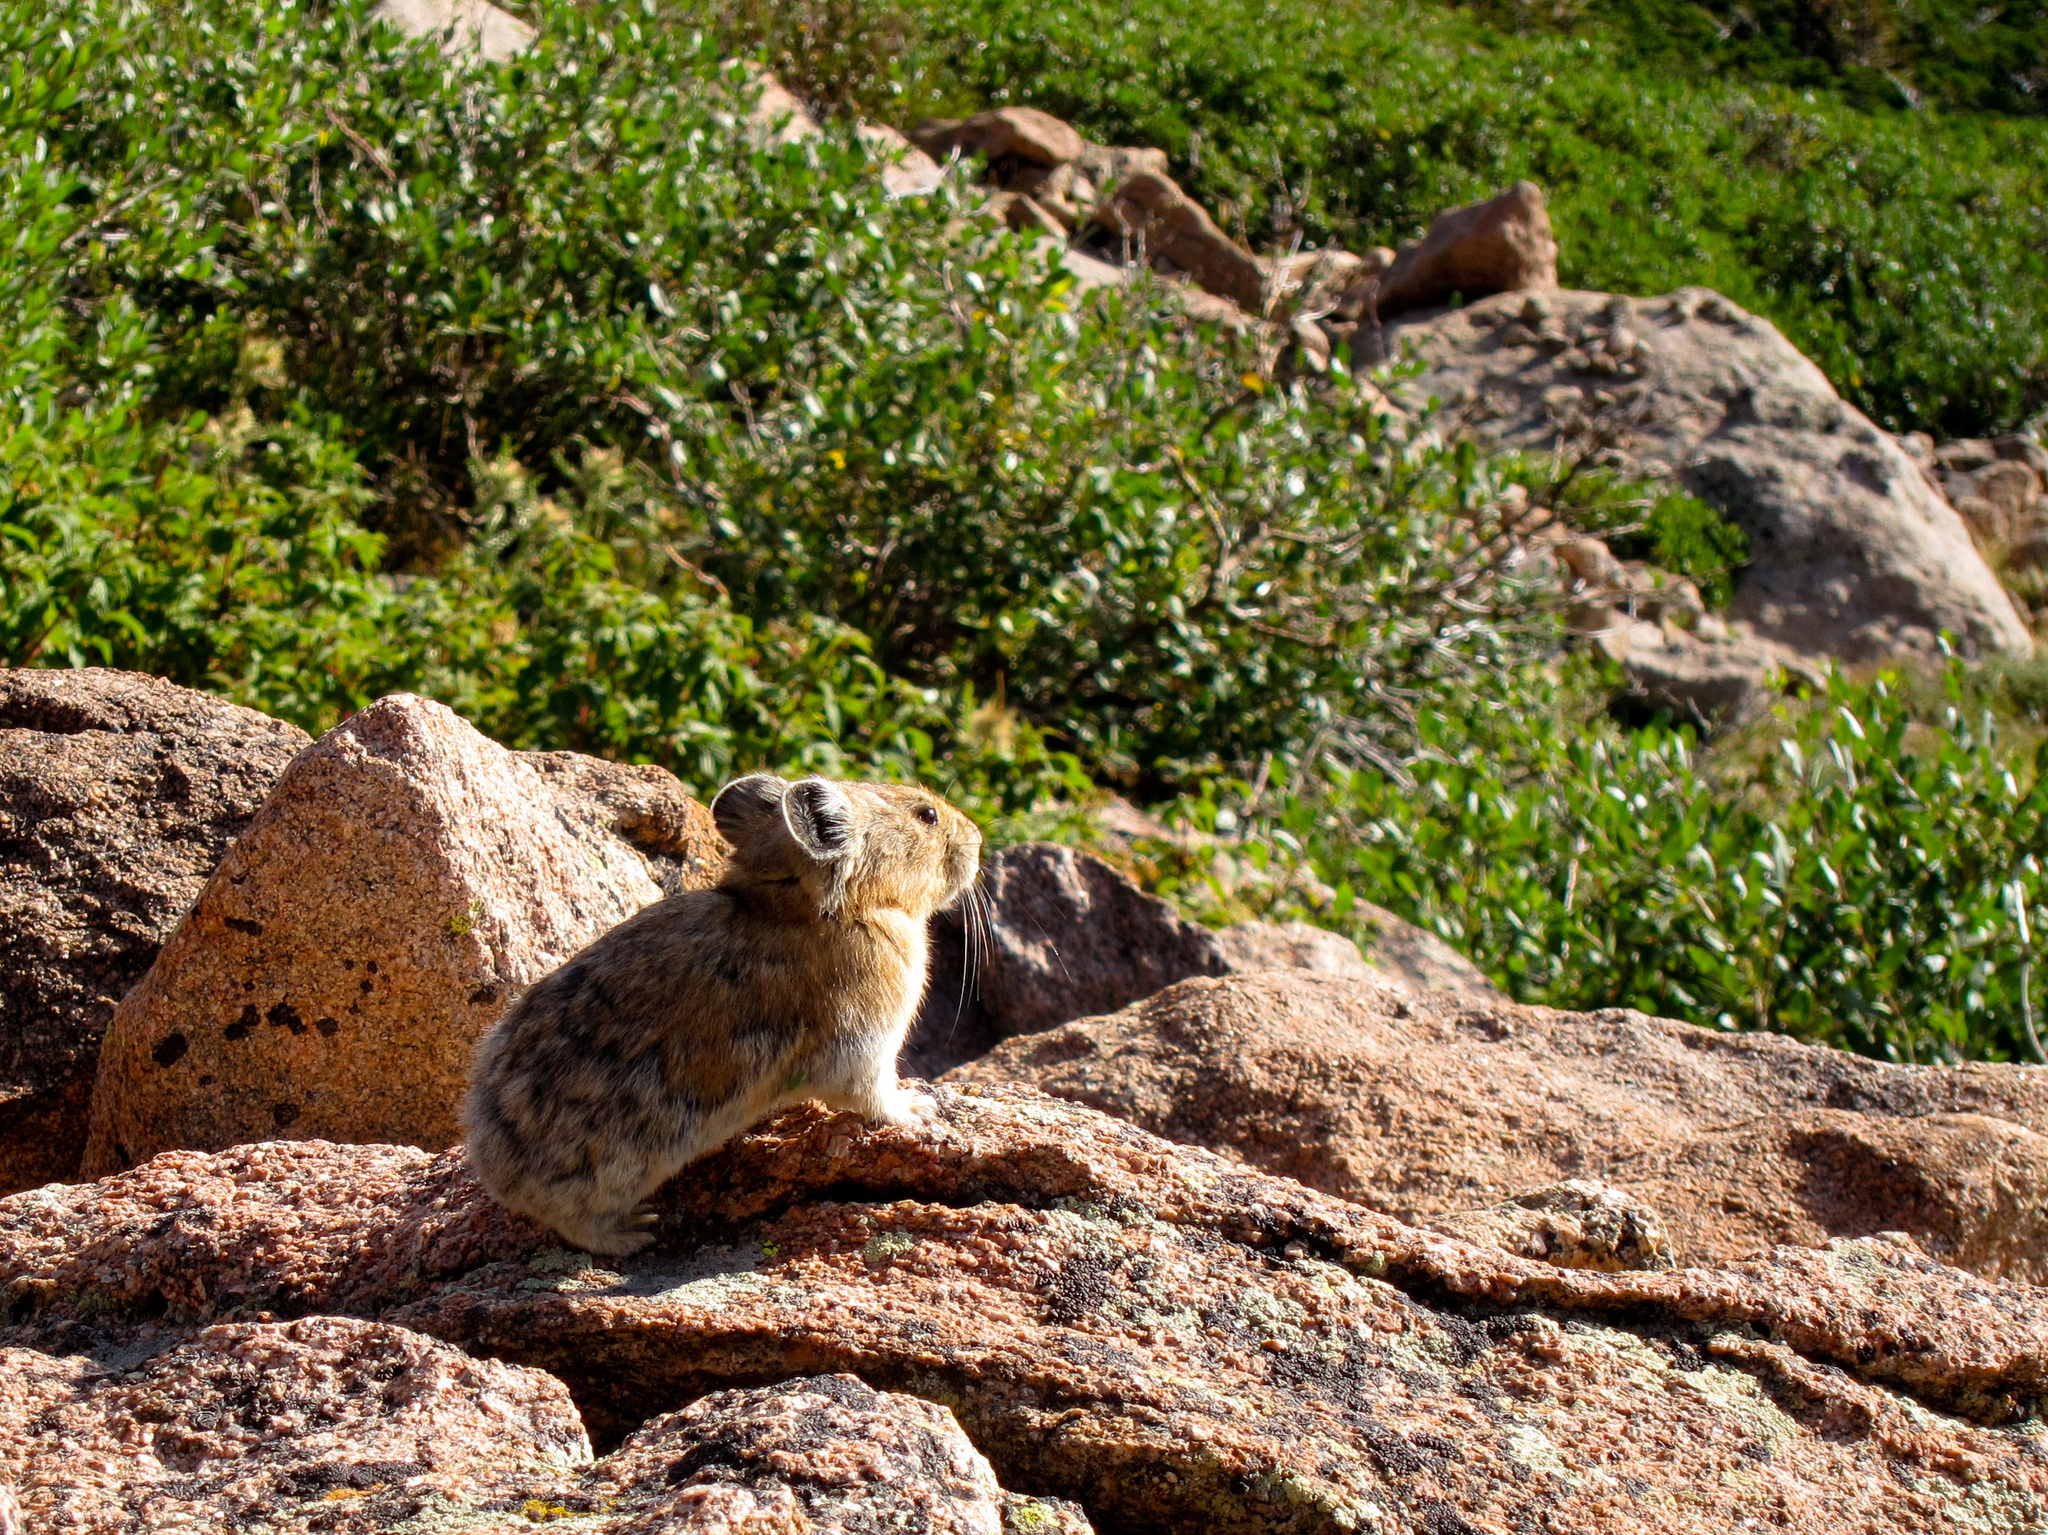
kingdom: Animalia
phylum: Chordata
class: Mammalia
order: Lagomorpha
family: Ochotonidae
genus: Ochotona
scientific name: Ochotona princeps
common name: American pika
